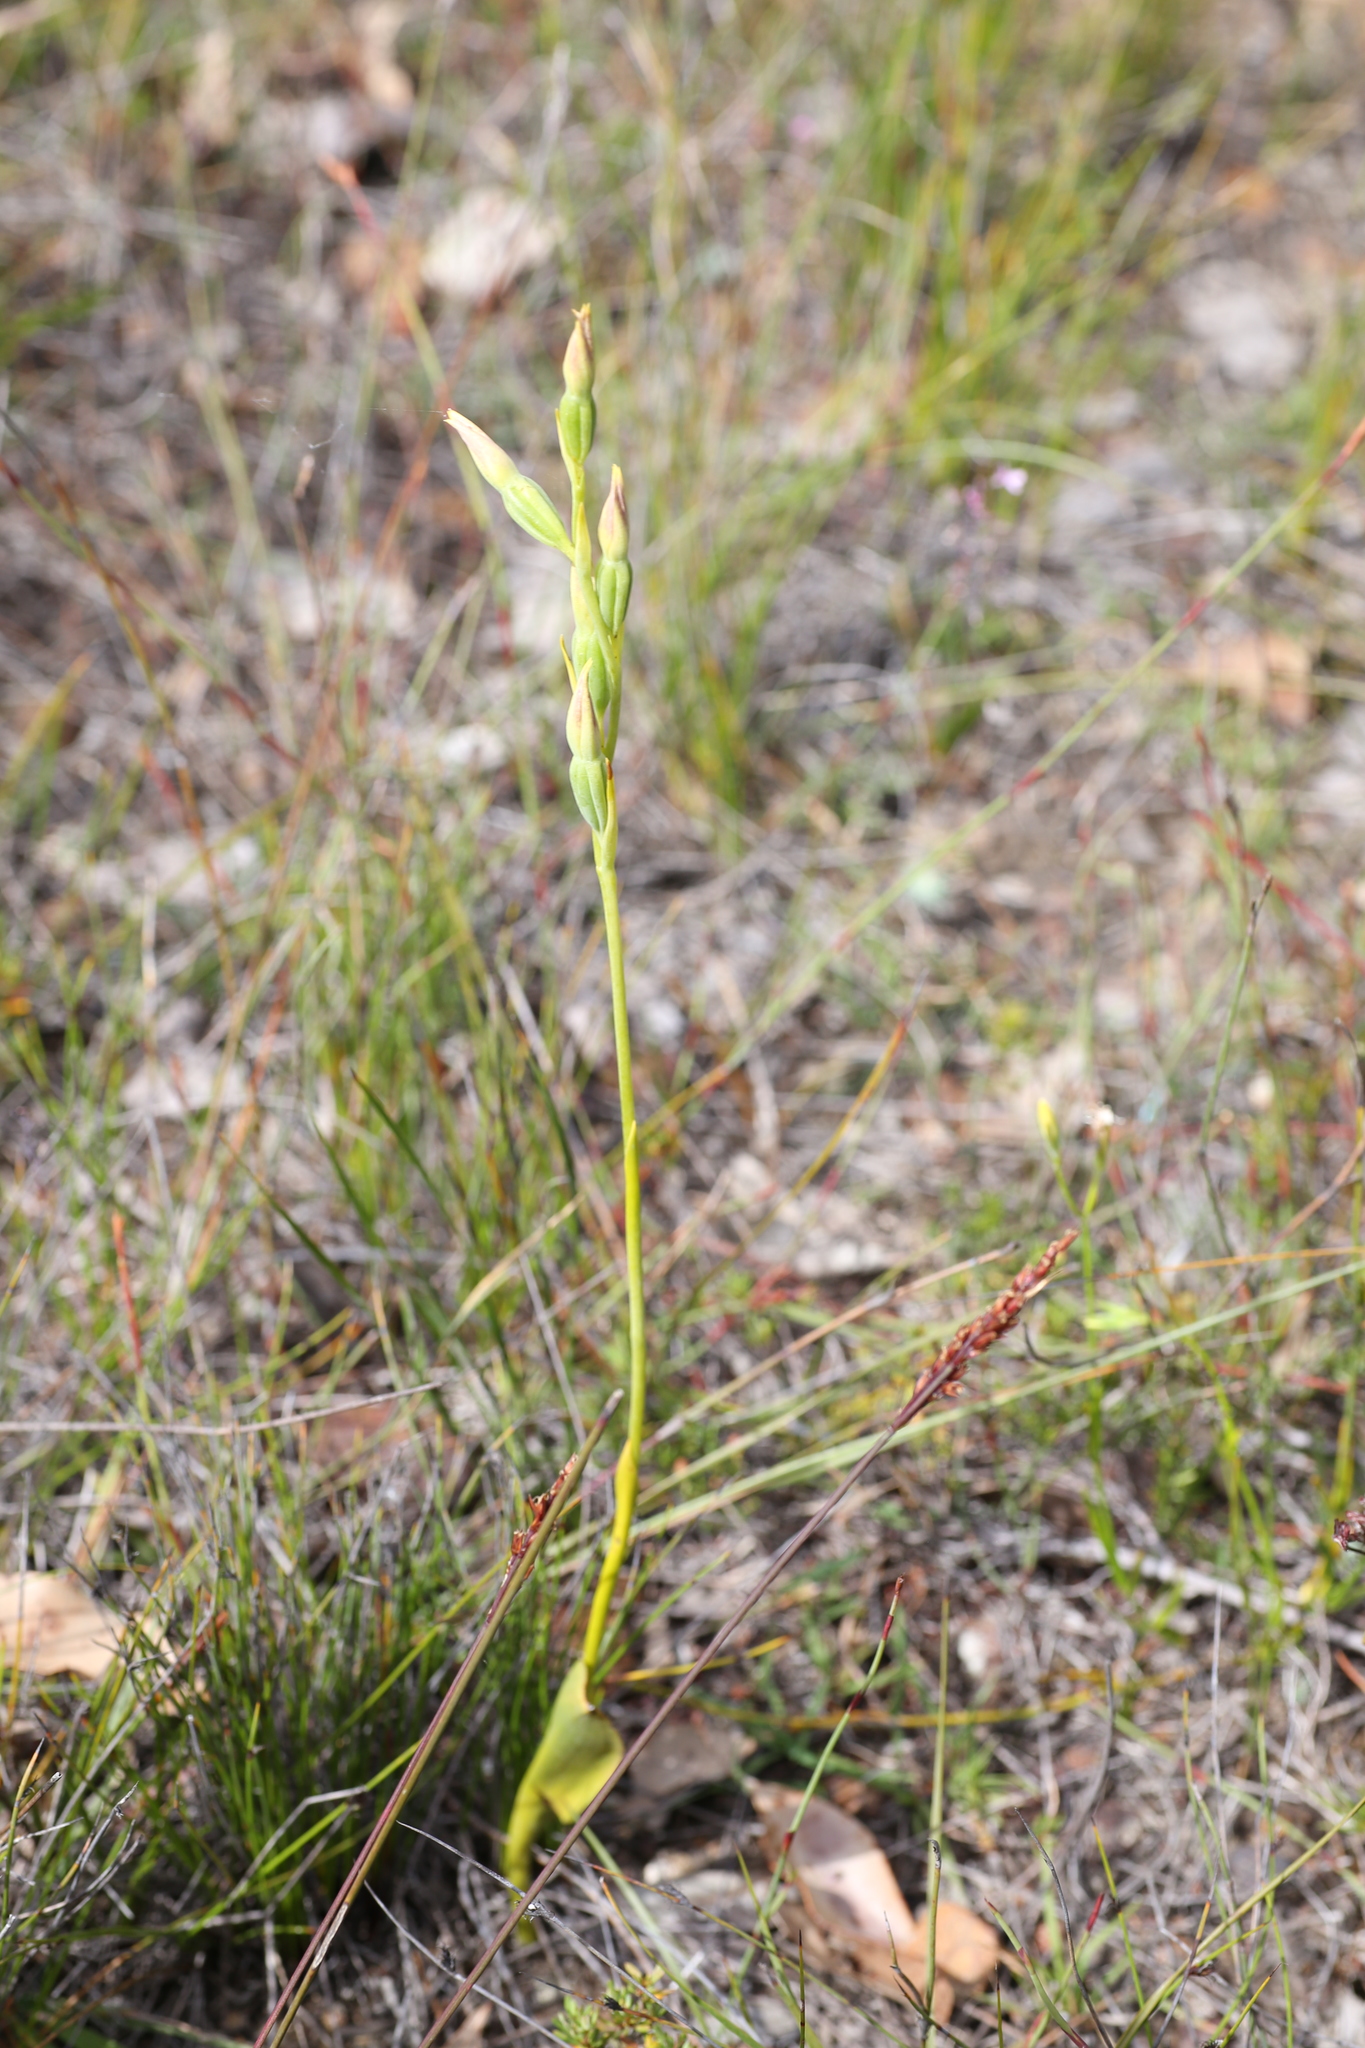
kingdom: Plantae
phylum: Tracheophyta
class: Liliopsida
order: Asparagales
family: Orchidaceae
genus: Thelymitra
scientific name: Thelymitra benthamiana
